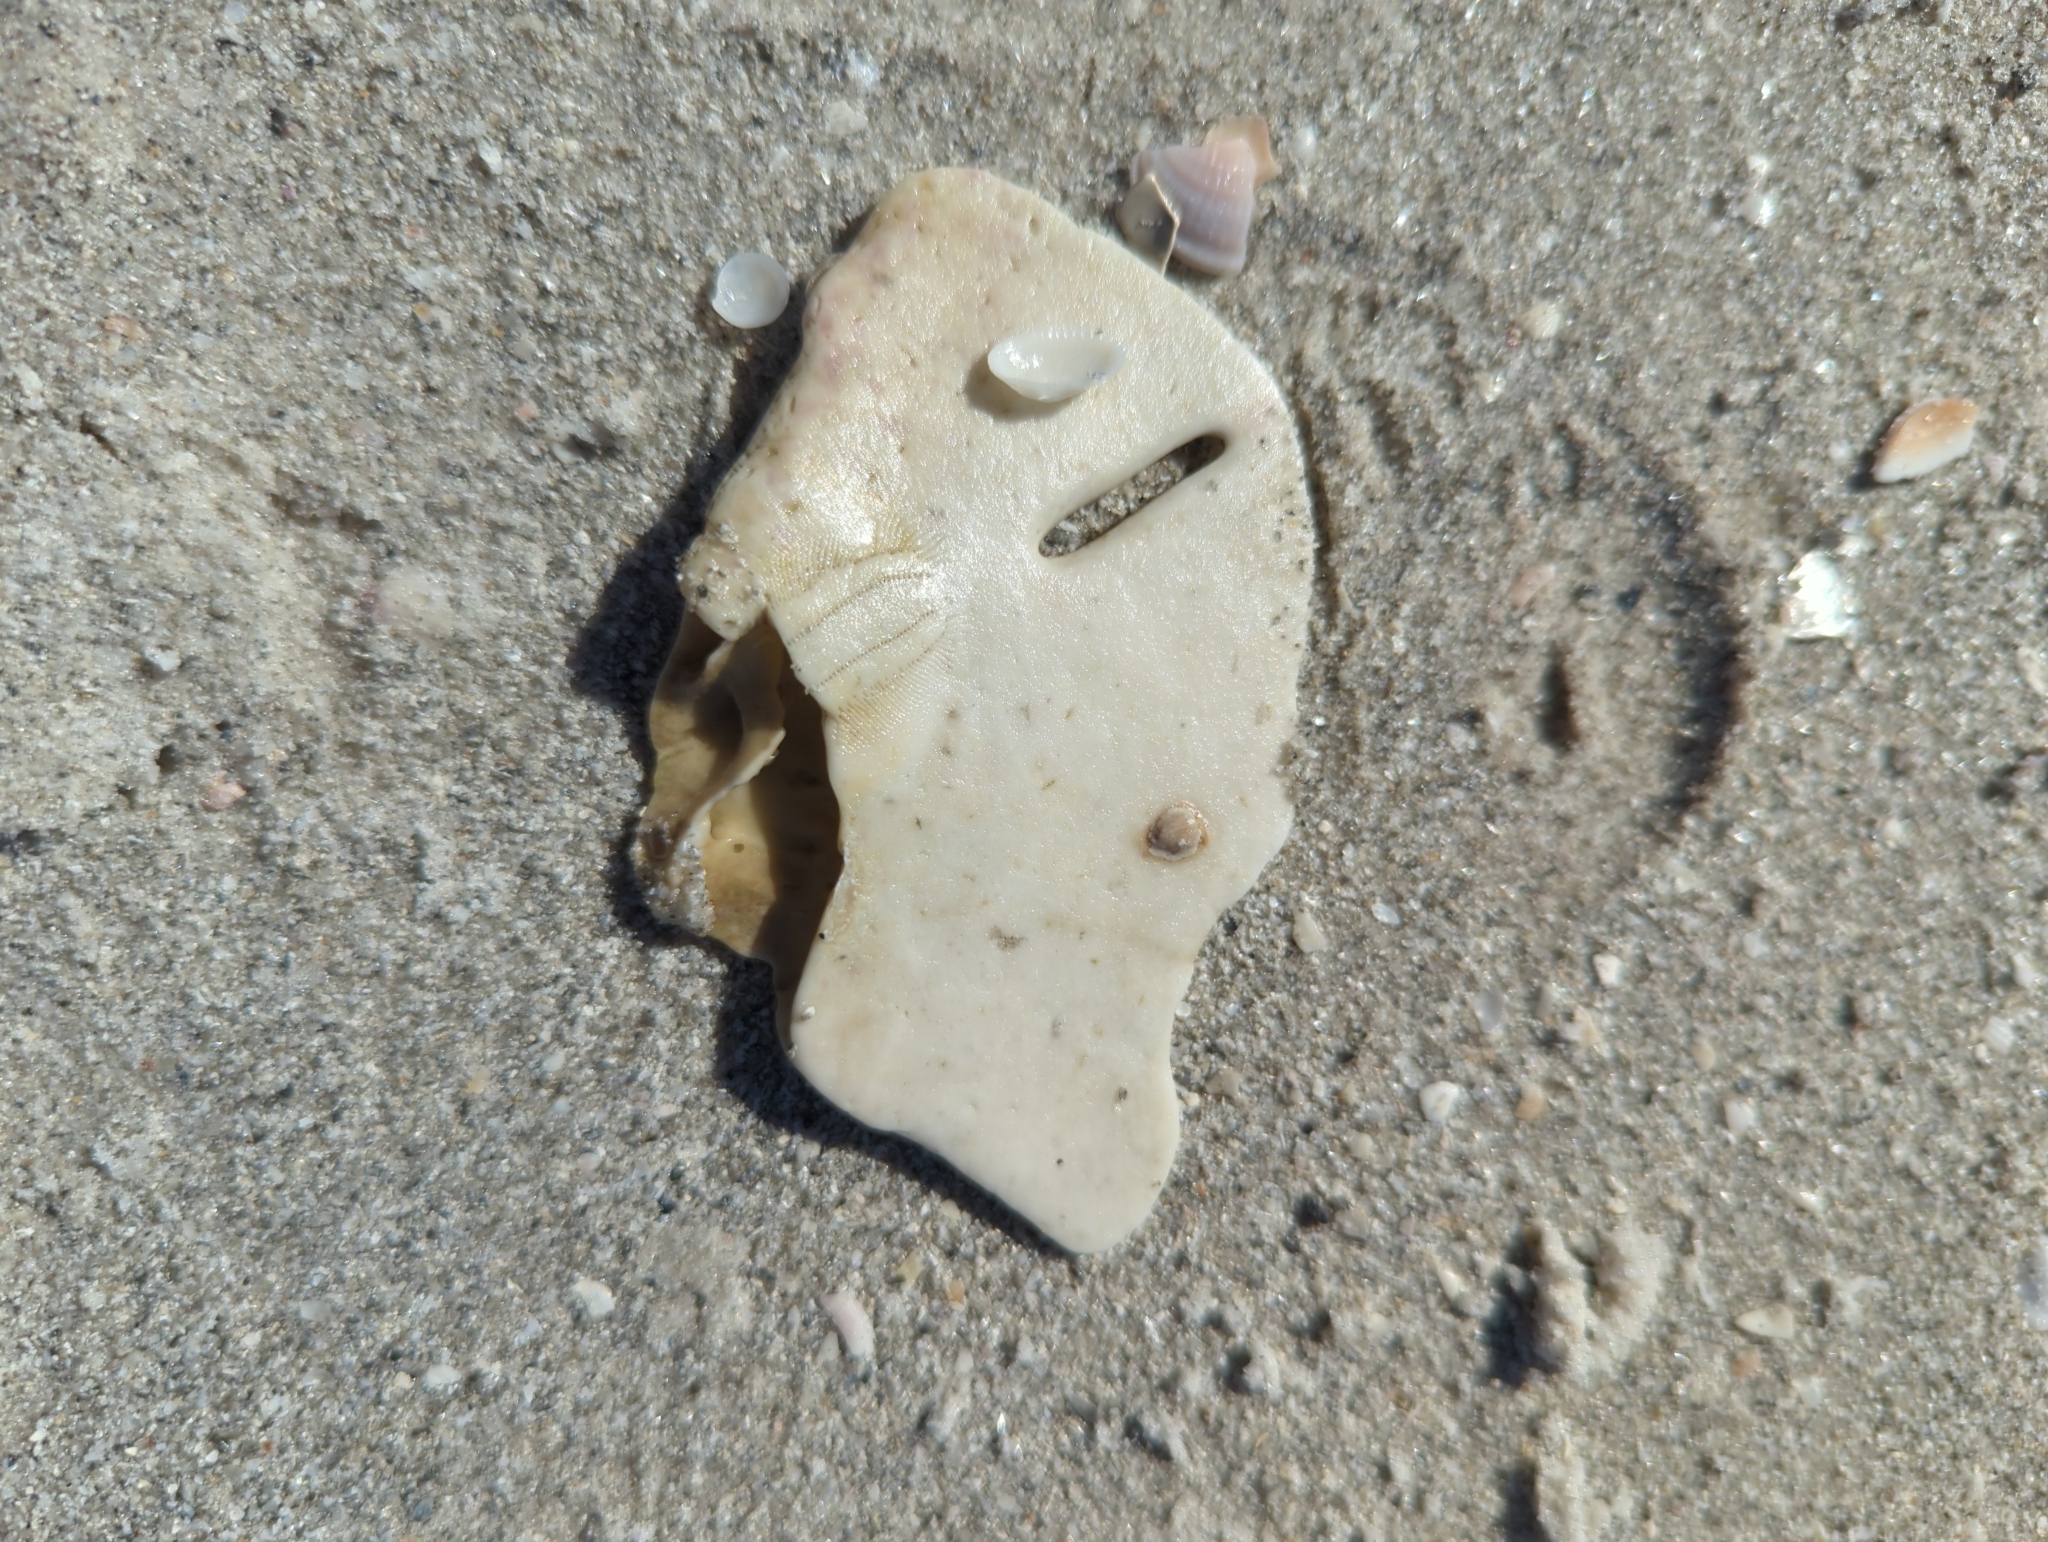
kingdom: Animalia
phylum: Echinodermata
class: Echinoidea
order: Echinolampadacea
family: Mellitidae
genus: Mellita
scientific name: Mellita quinquiesperforata
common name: Sand dollar
